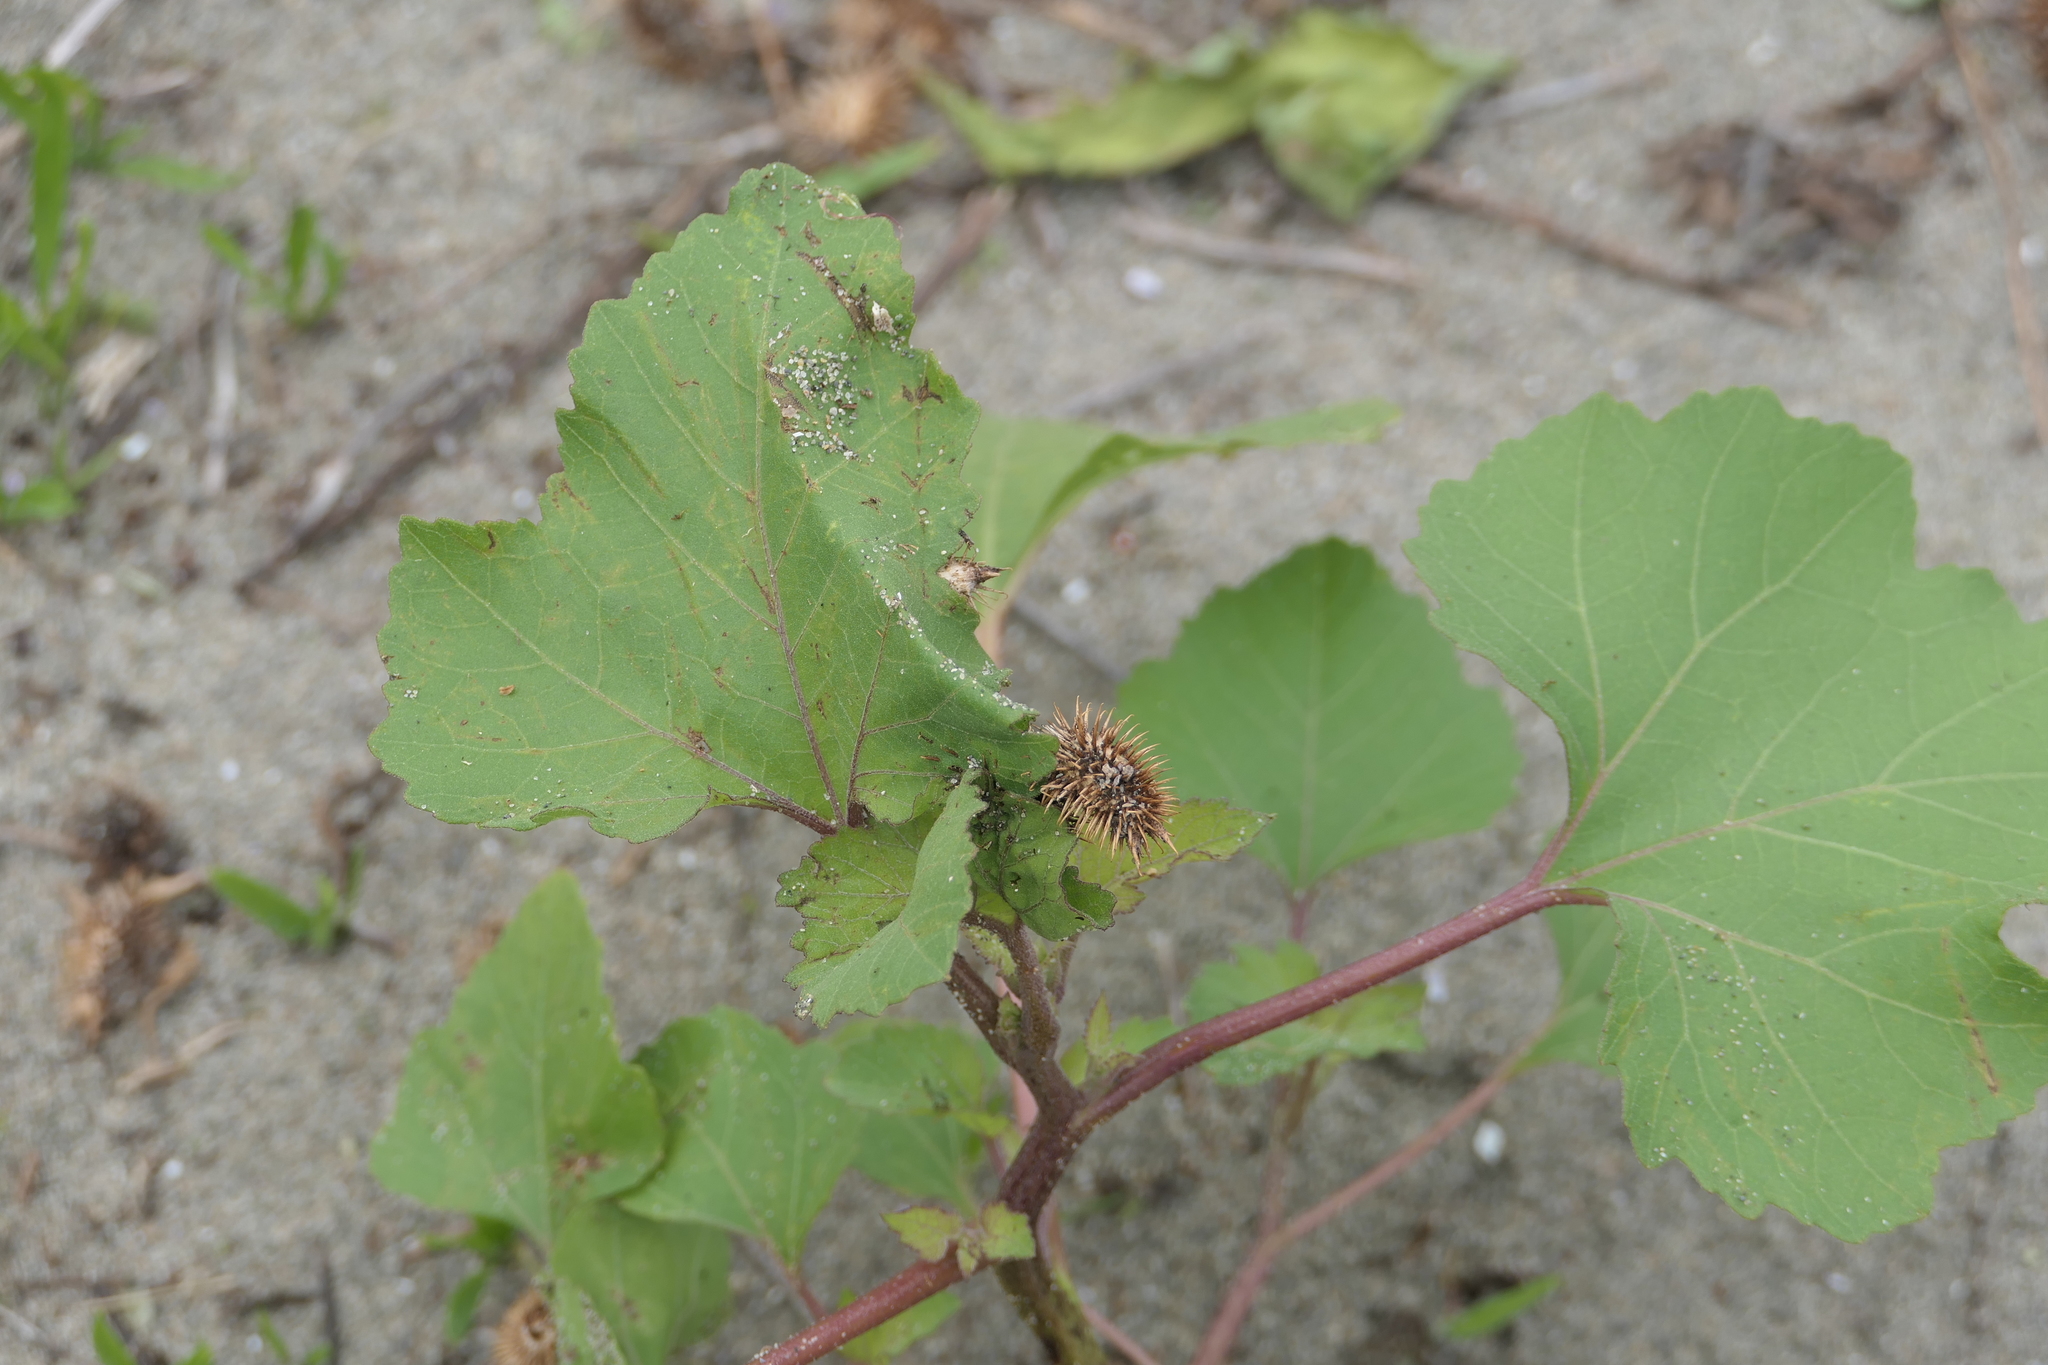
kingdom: Plantae
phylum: Tracheophyta
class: Magnoliopsida
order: Asterales
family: Asteraceae
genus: Xanthium
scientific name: Xanthium strumarium
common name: Rough cocklebur
